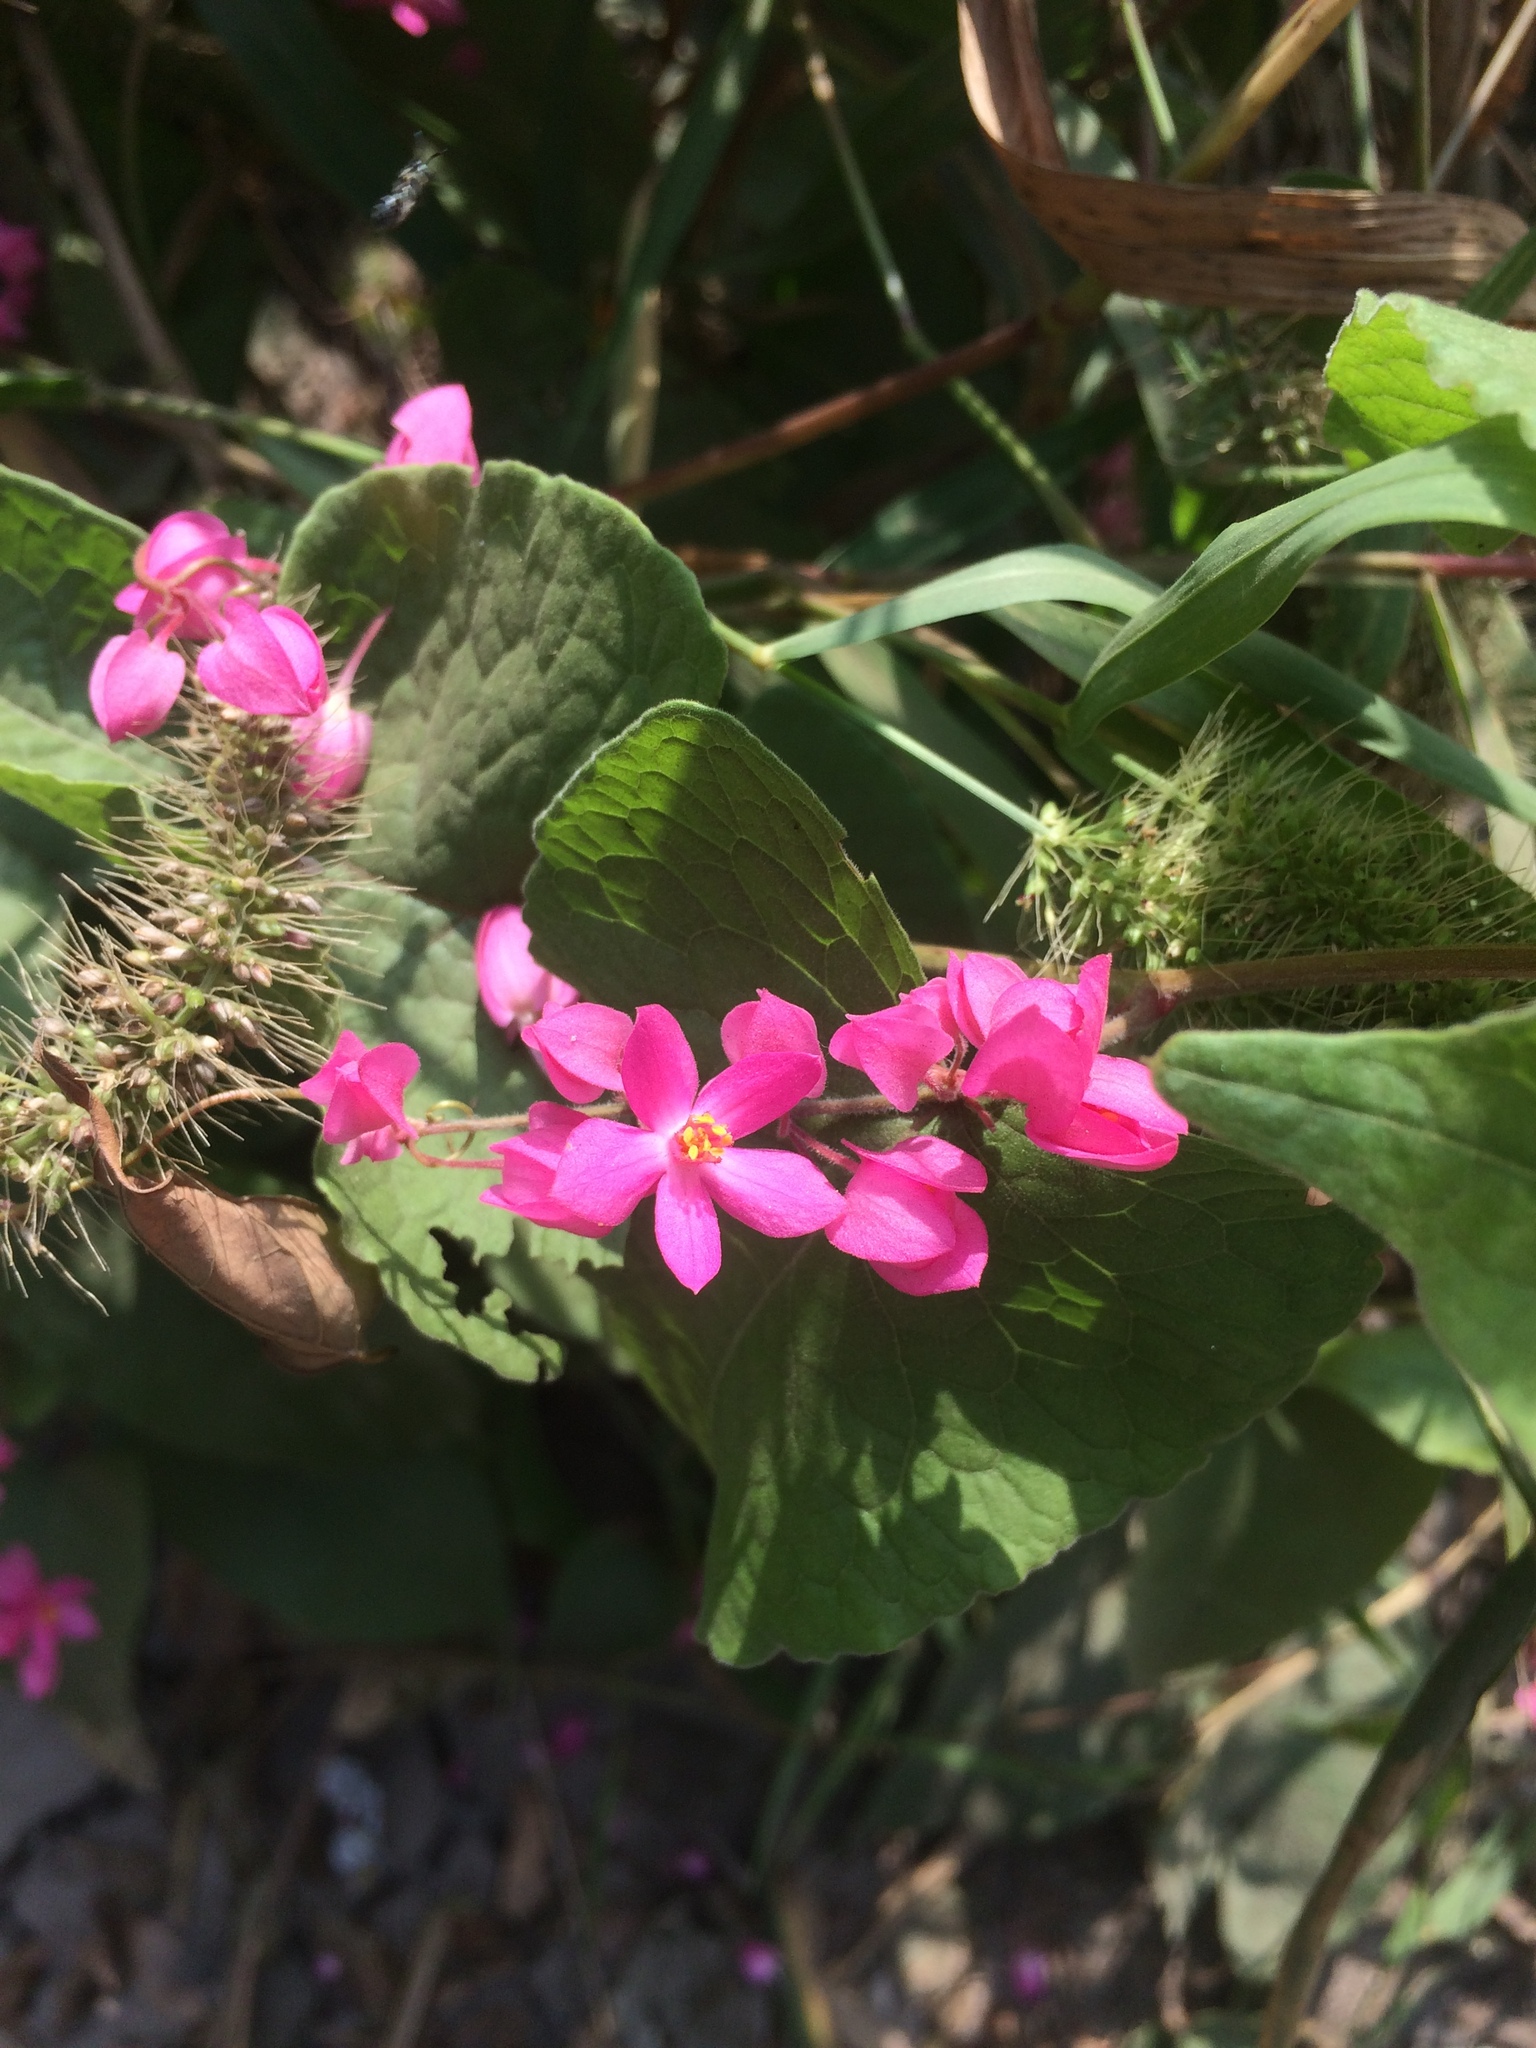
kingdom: Plantae
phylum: Tracheophyta
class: Magnoliopsida
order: Caryophyllales
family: Polygonaceae
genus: Antigonon
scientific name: Antigonon leptopus
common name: Coral vine
